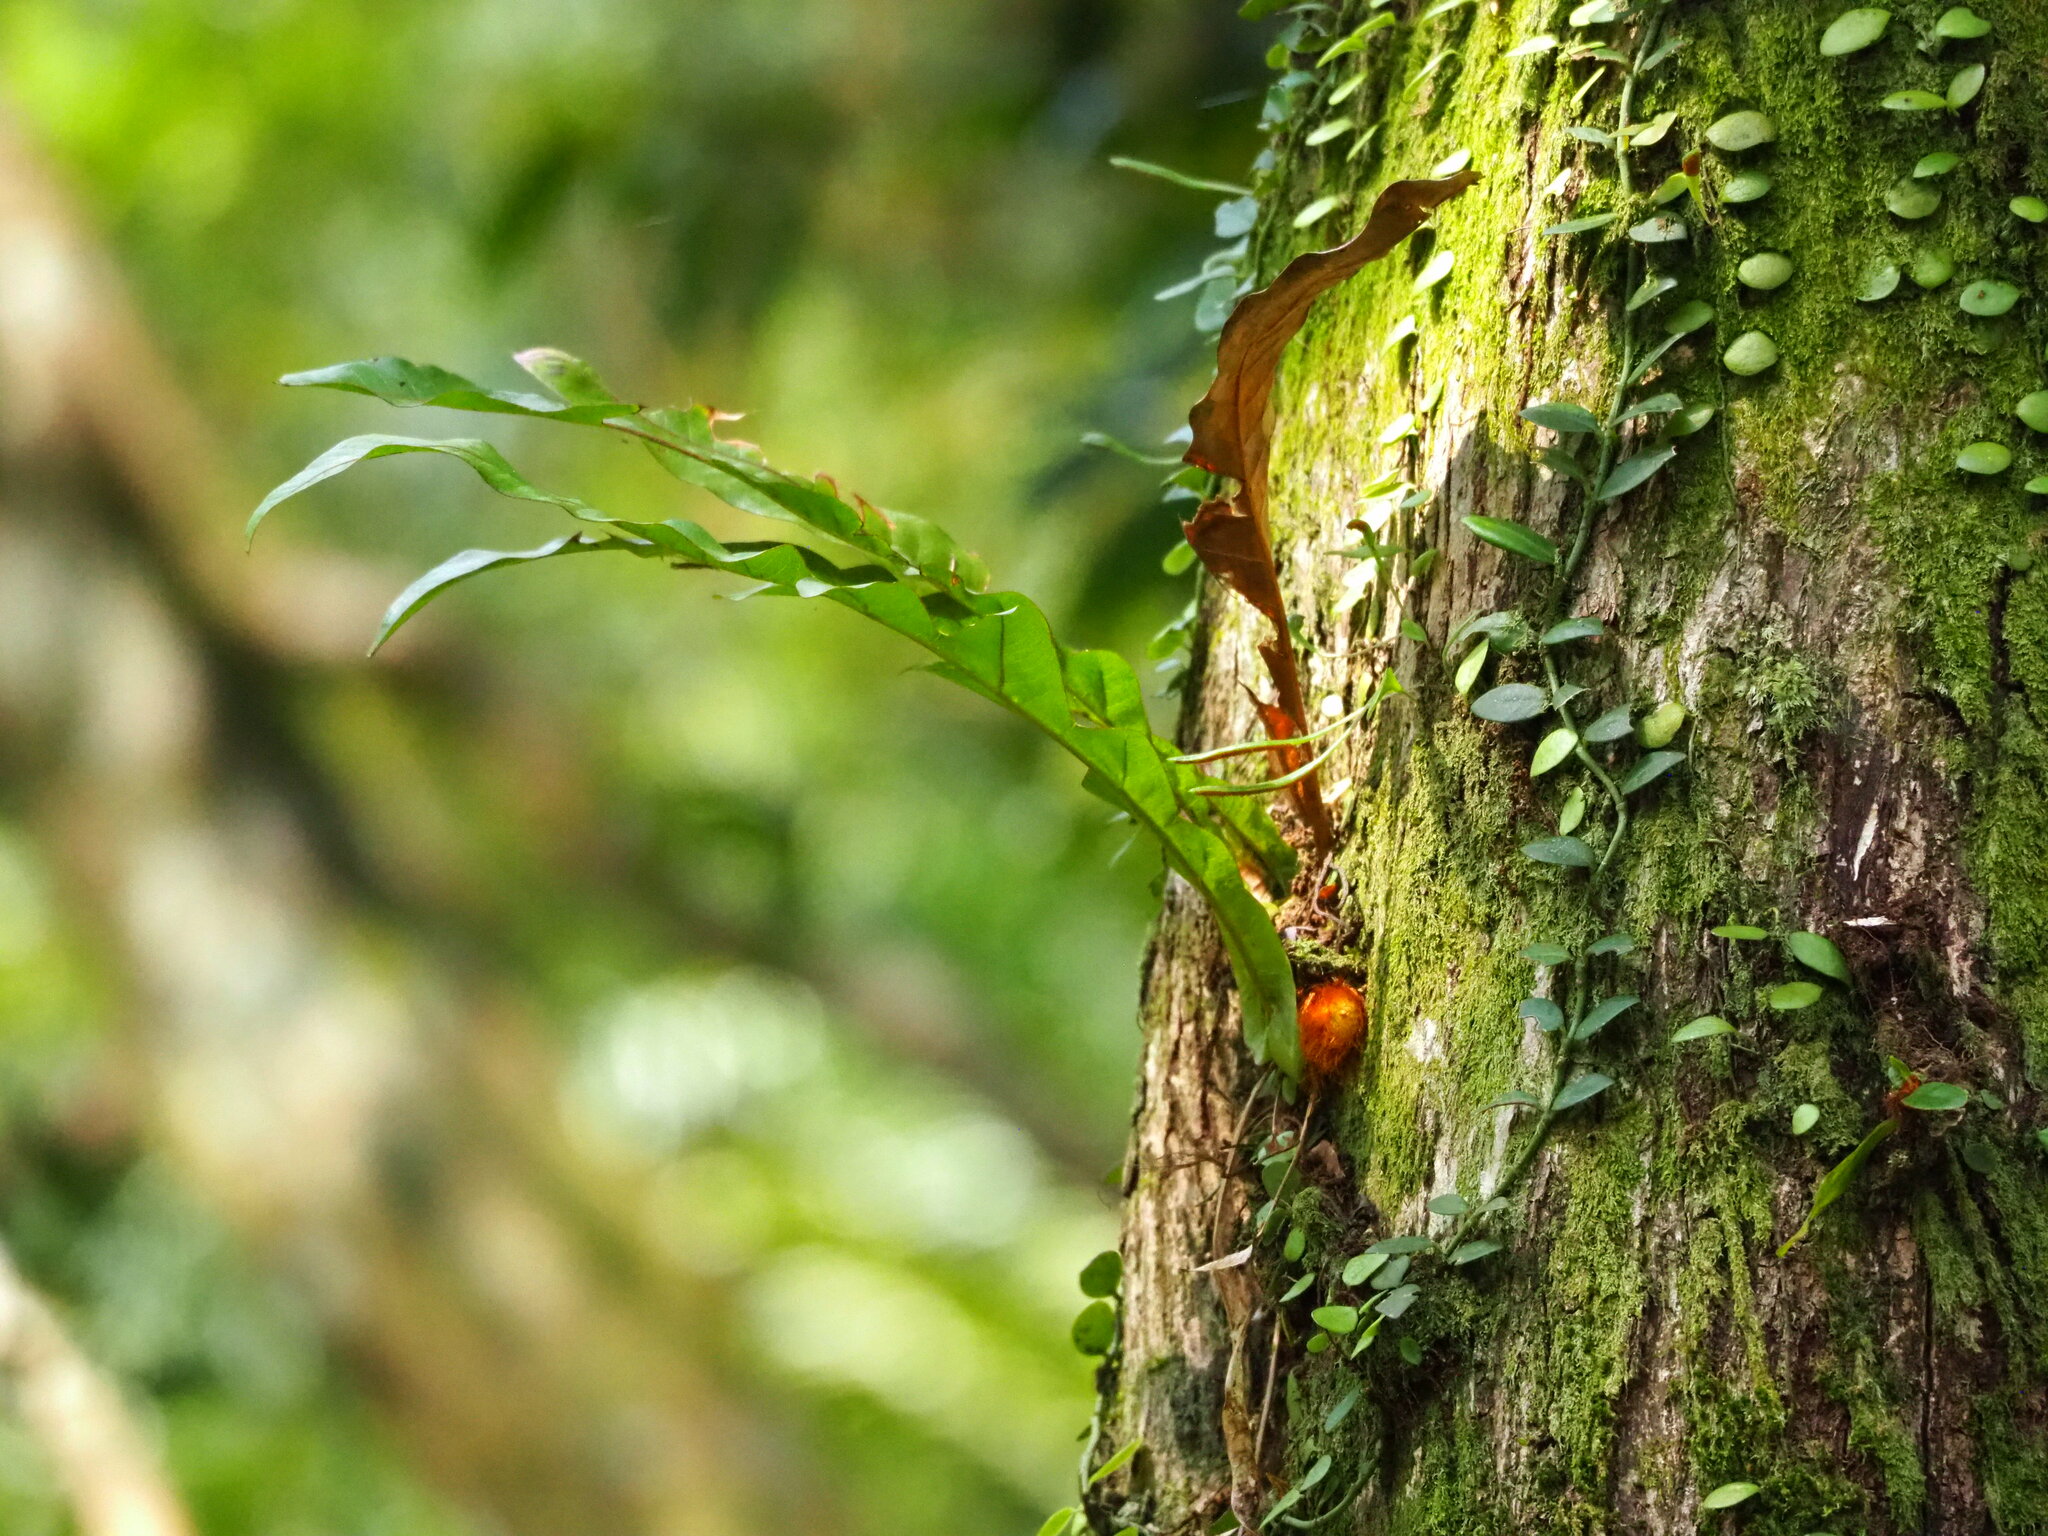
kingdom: Plantae
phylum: Tracheophyta
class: Polypodiopsida
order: Polypodiales
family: Polypodiaceae
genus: Drynaria
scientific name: Drynaria coronans
